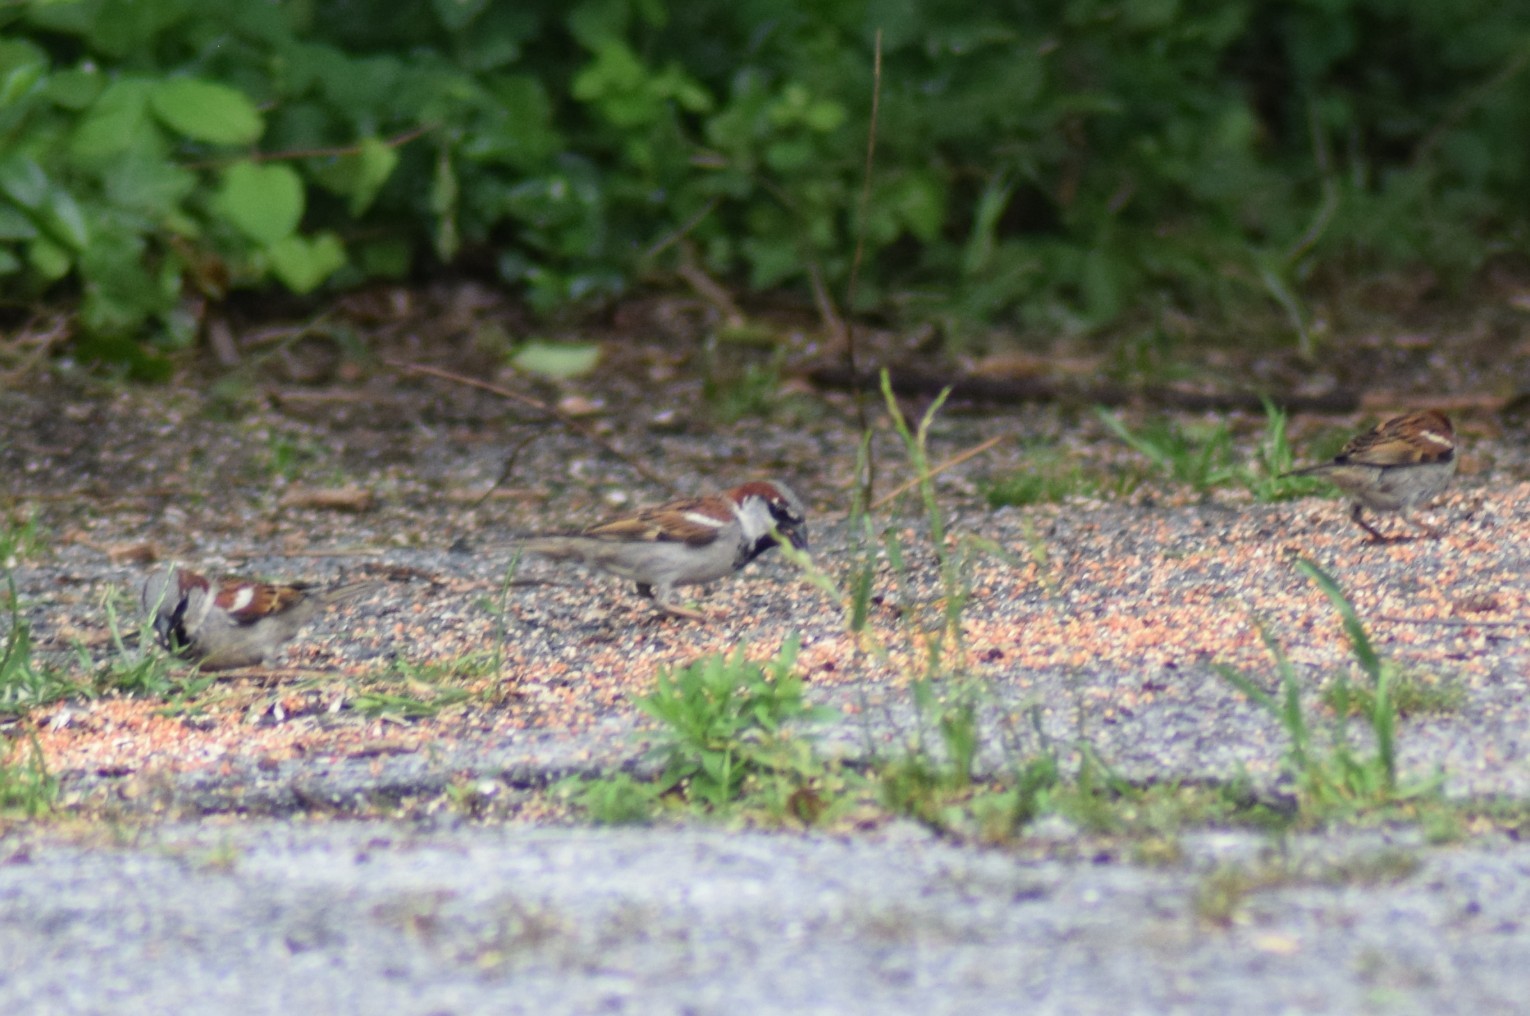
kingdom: Animalia
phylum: Chordata
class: Aves
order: Passeriformes
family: Passeridae
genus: Passer
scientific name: Passer domesticus
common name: House sparrow
